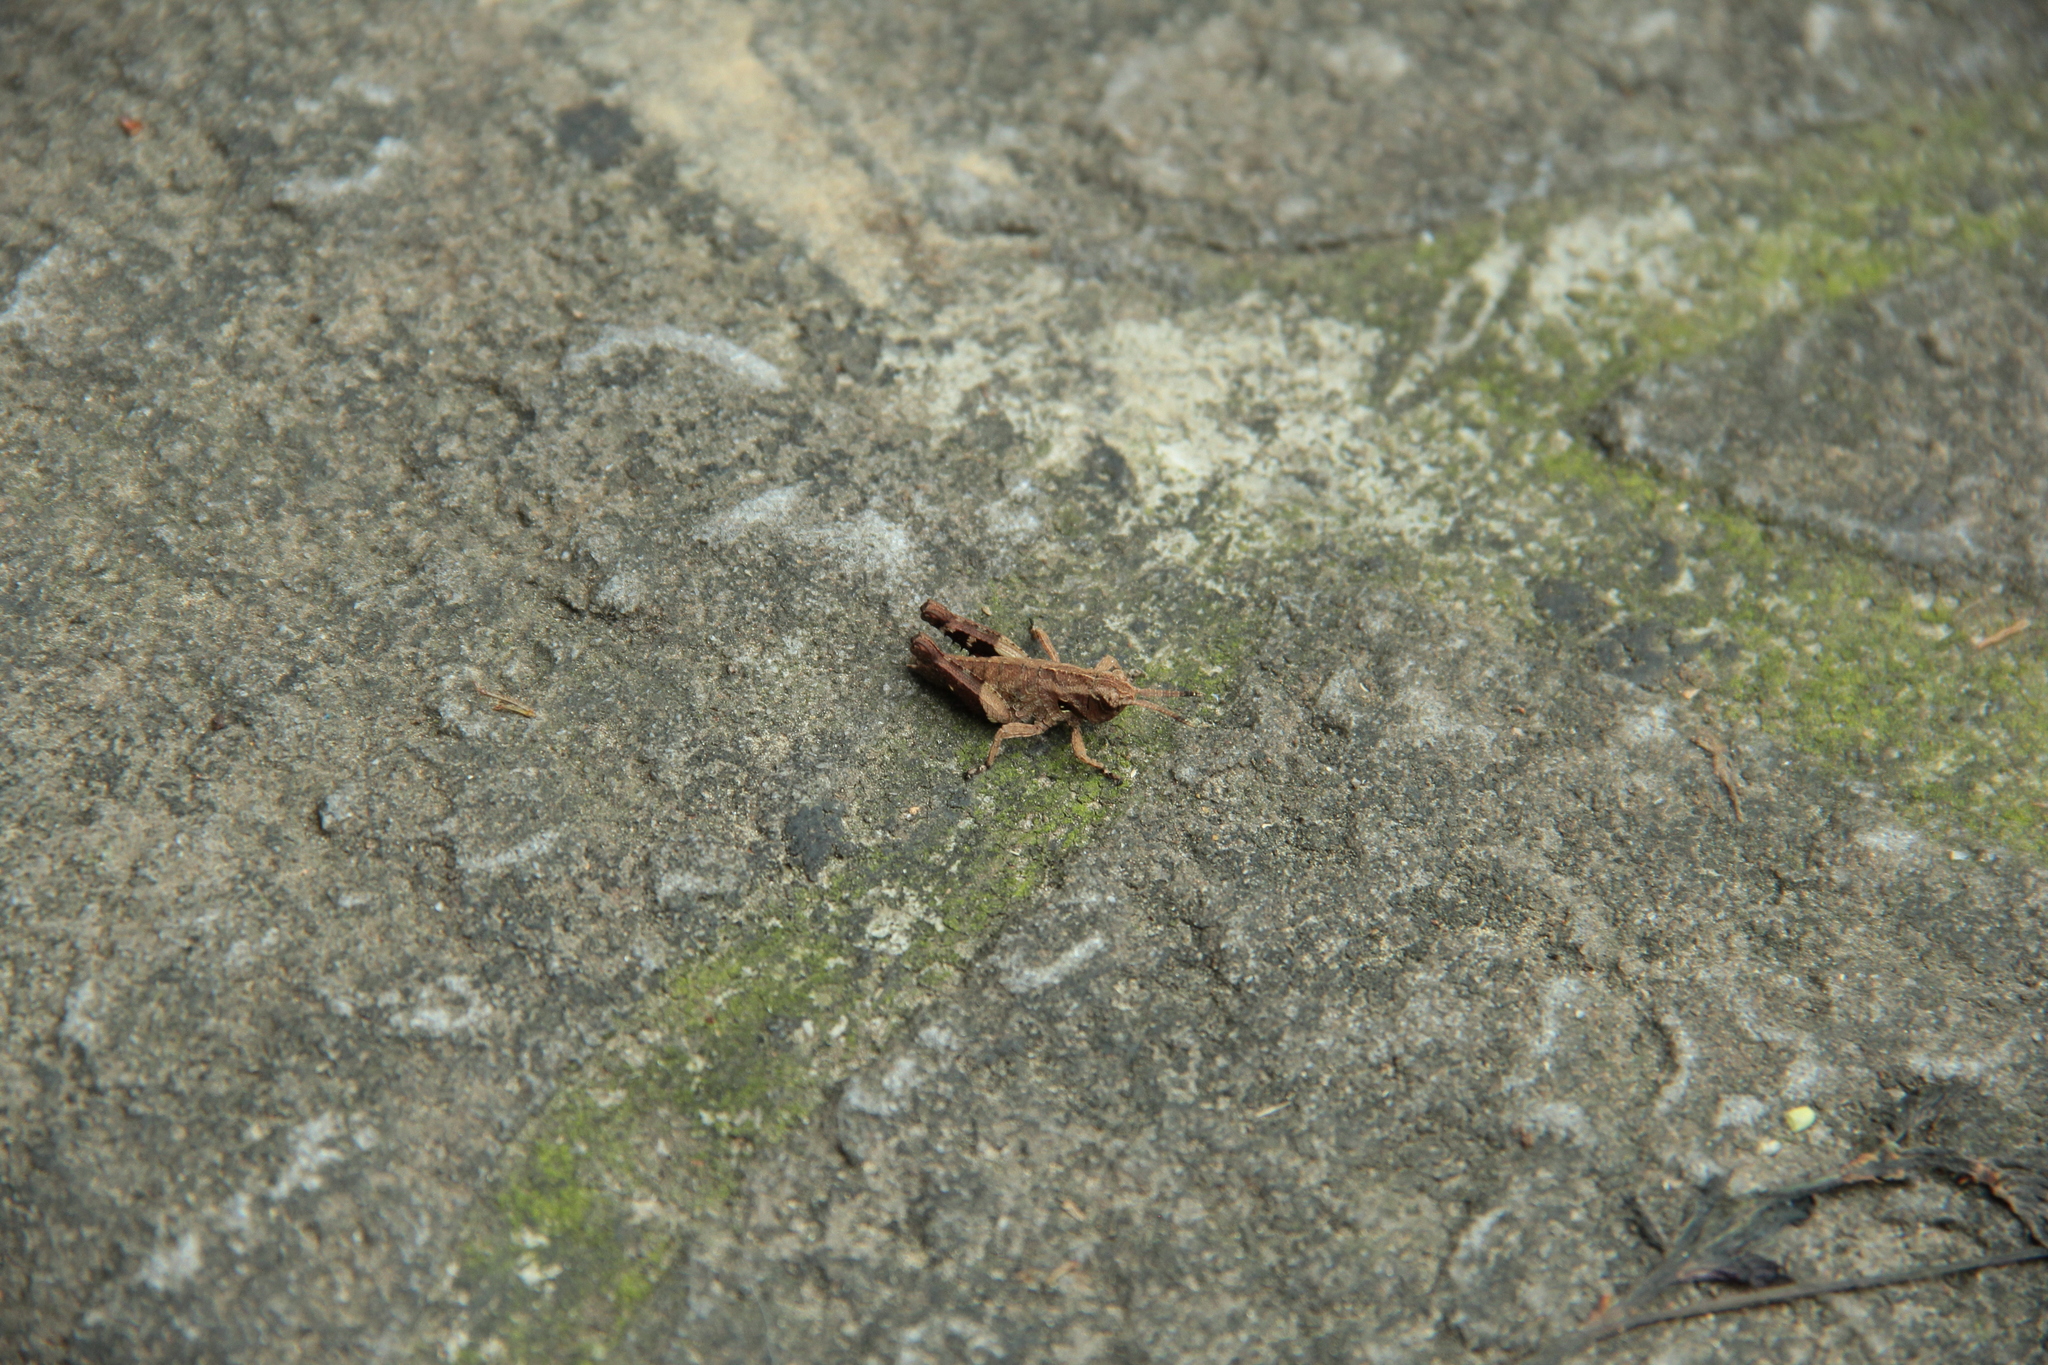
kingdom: Animalia
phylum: Arthropoda
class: Insecta
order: Orthoptera
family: Acrididae
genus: Traulia
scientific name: Traulia ornata
